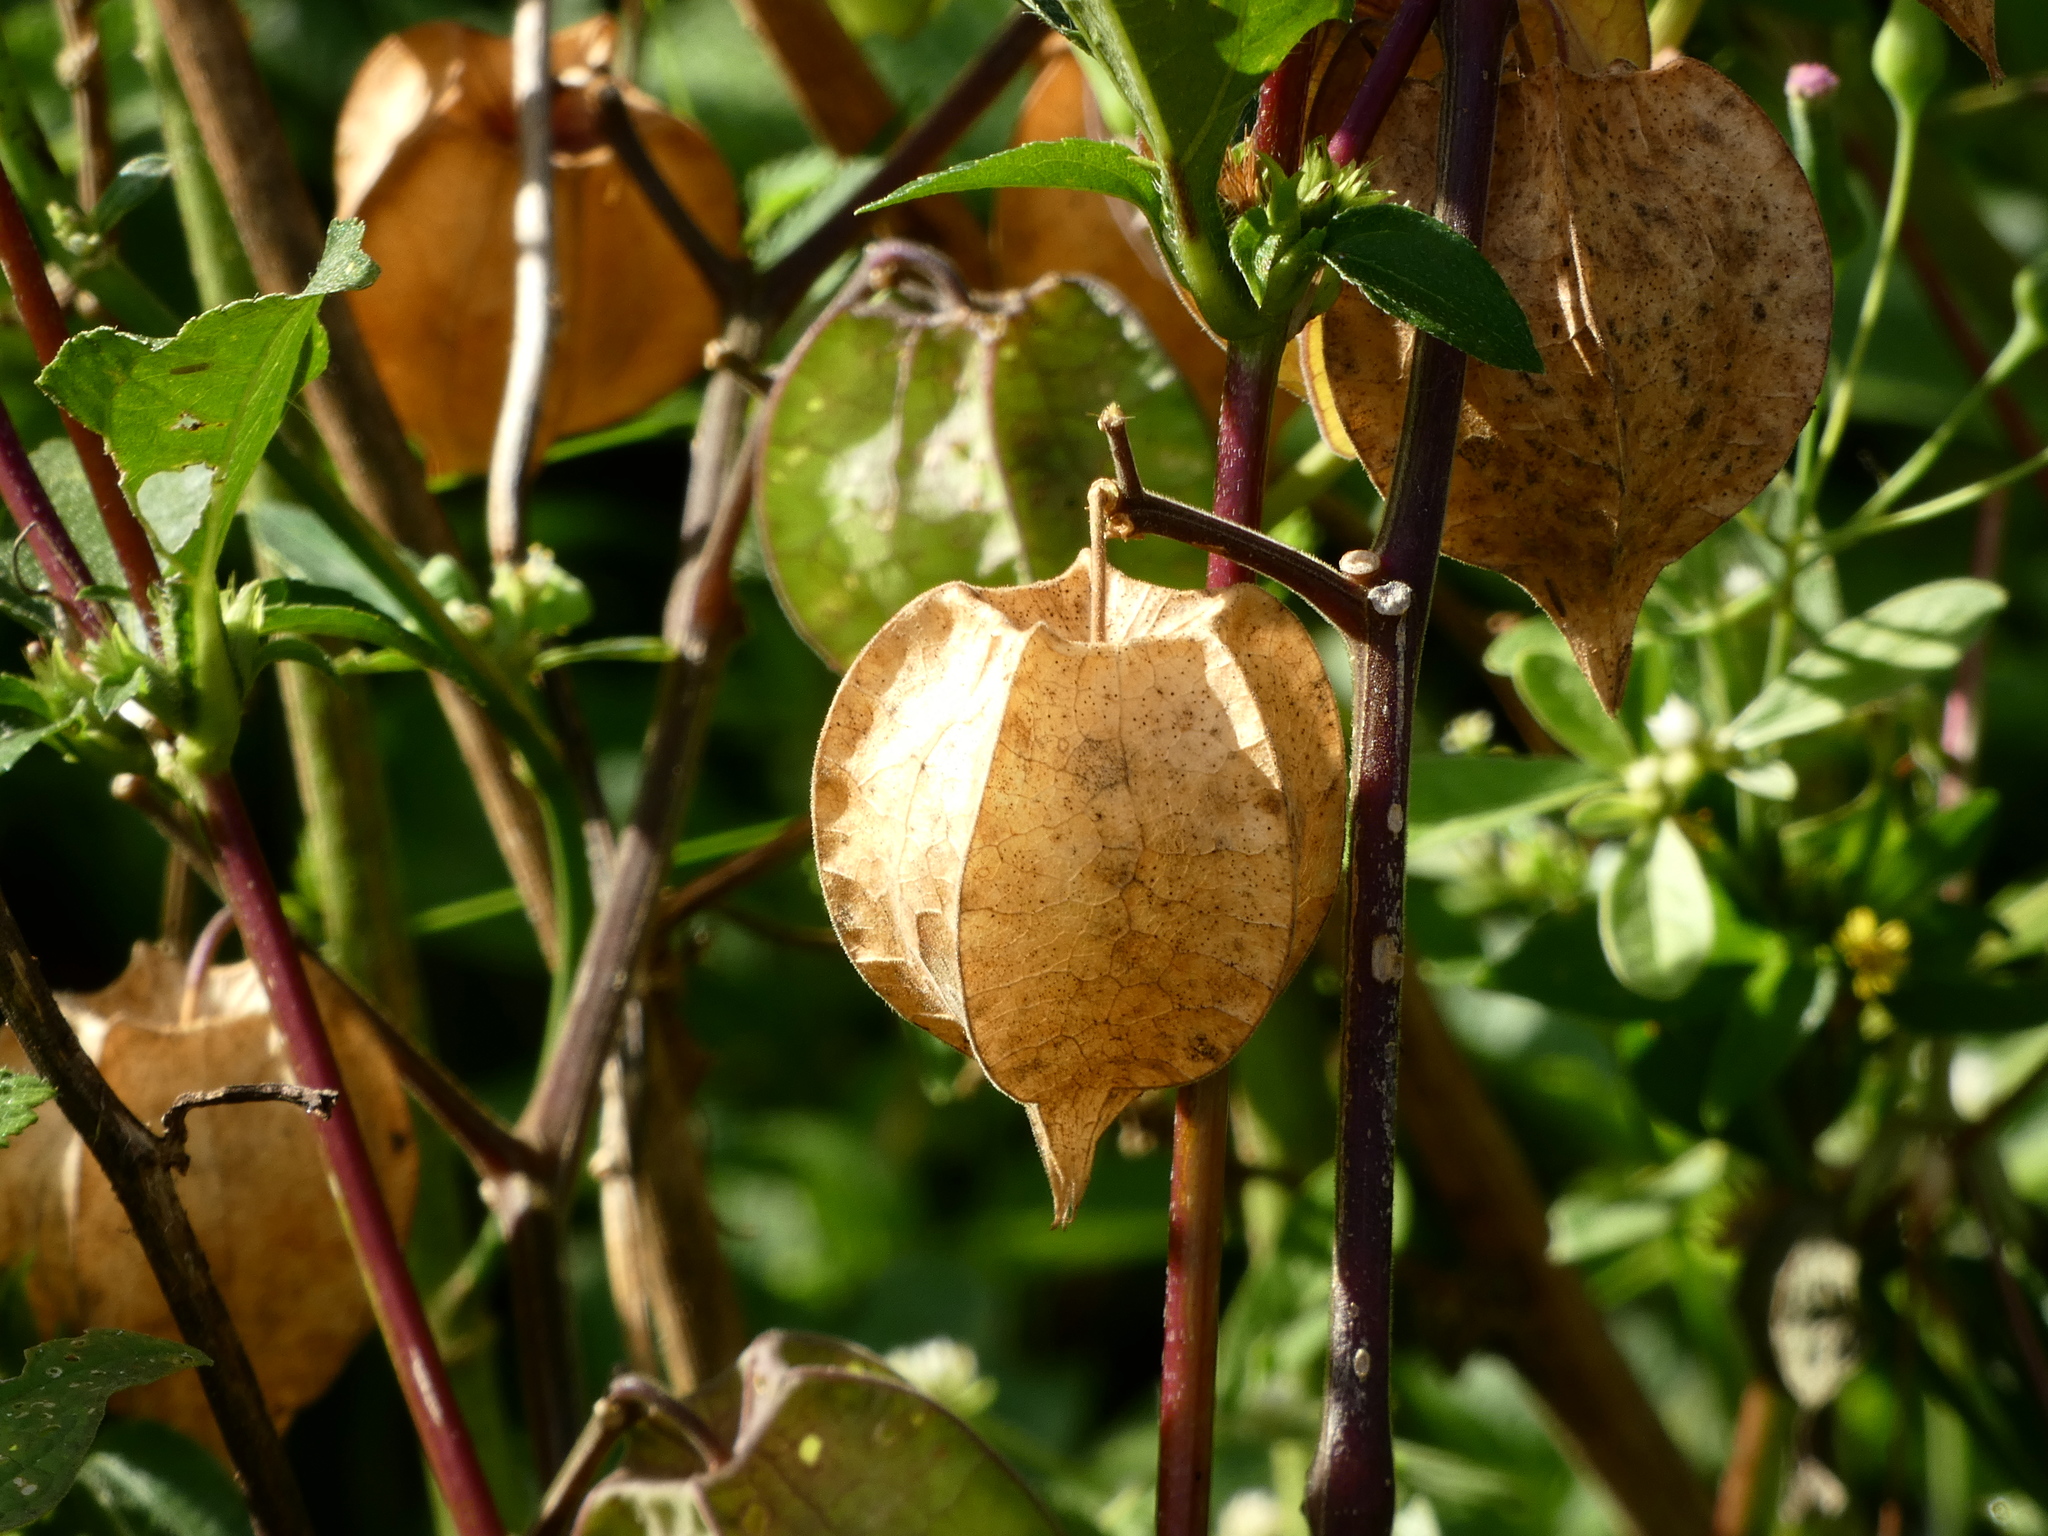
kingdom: Plantae
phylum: Tracheophyta
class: Magnoliopsida
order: Solanales
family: Solanaceae
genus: Physalis
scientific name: Physalis pubescens
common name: Downy ground-cherry
